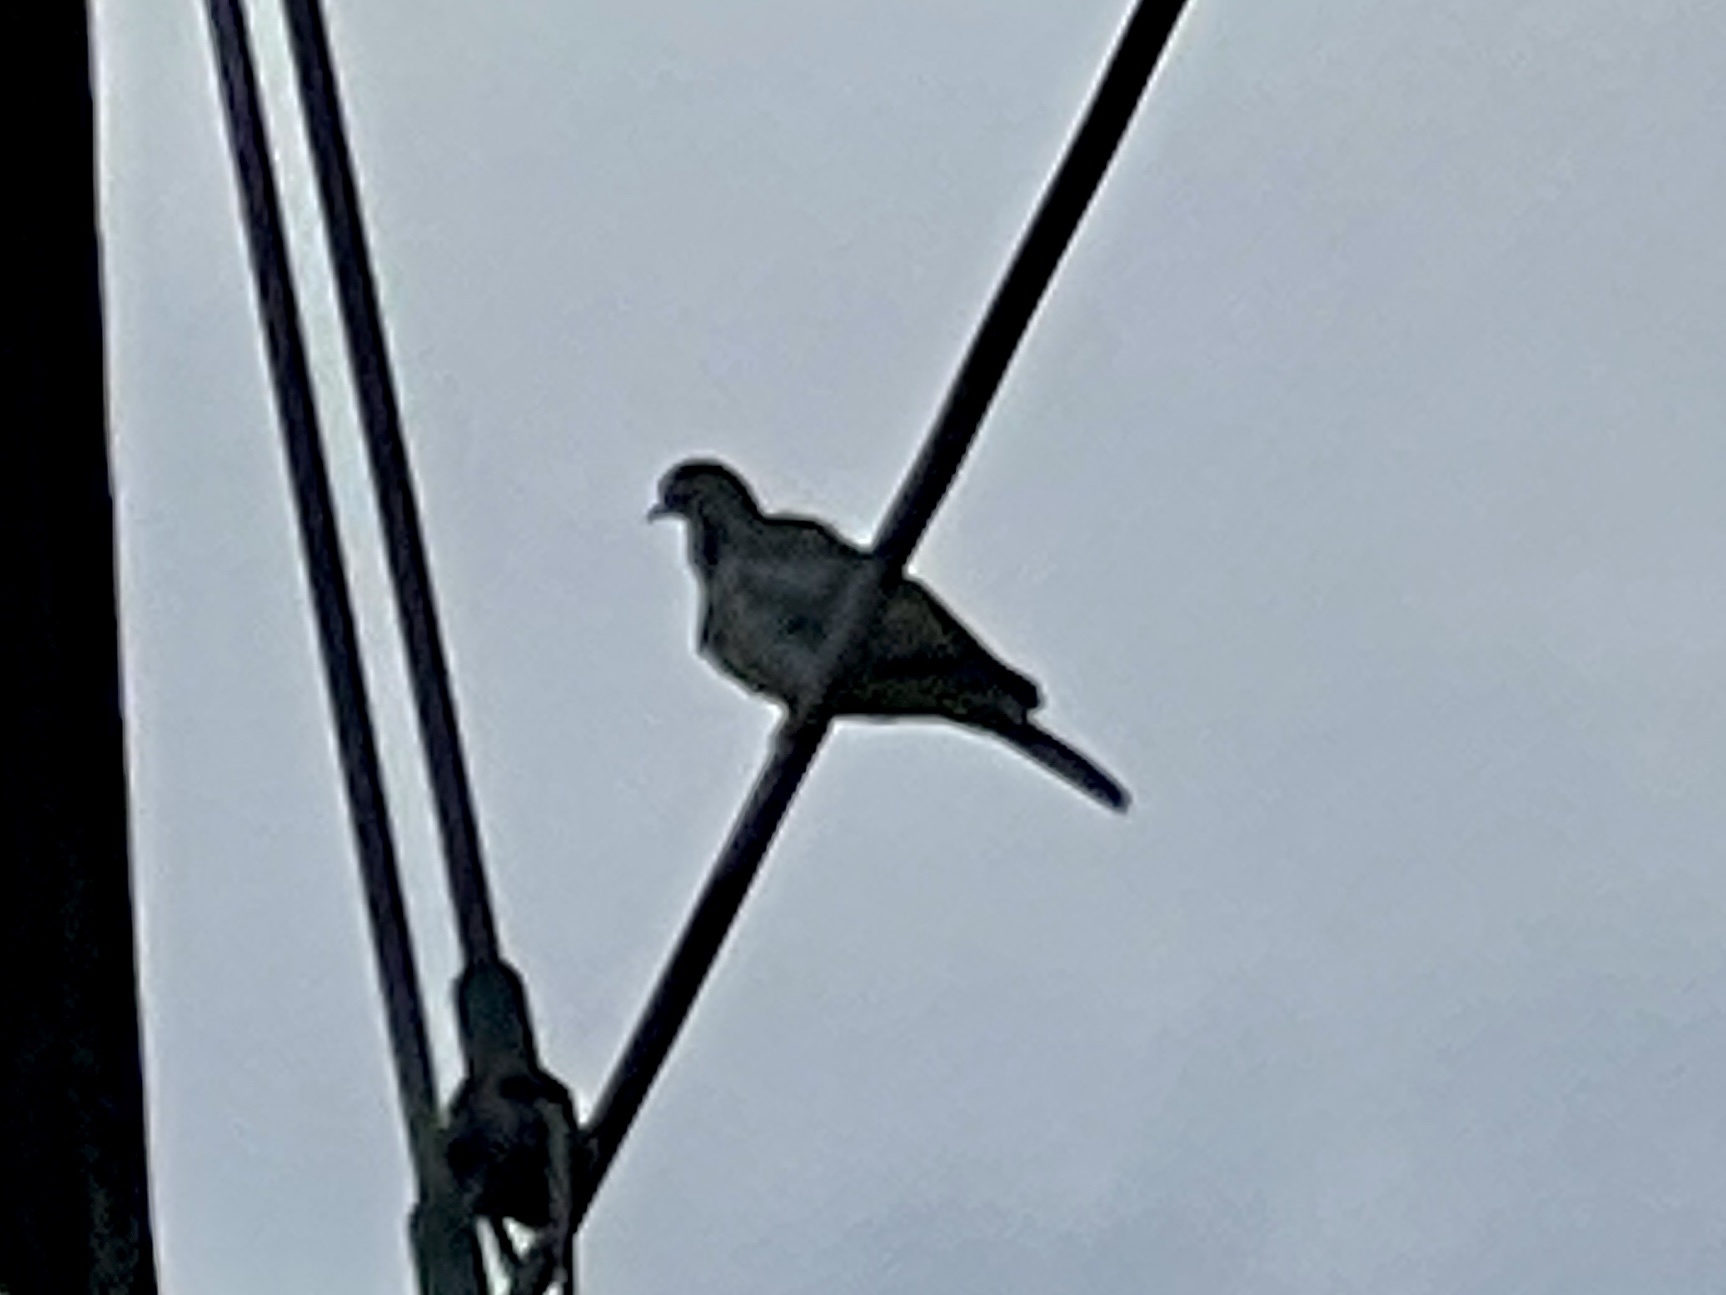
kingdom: Animalia
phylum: Chordata
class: Aves
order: Columbiformes
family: Columbidae
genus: Streptopelia
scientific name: Streptopelia decaocto
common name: Eurasian collared dove
